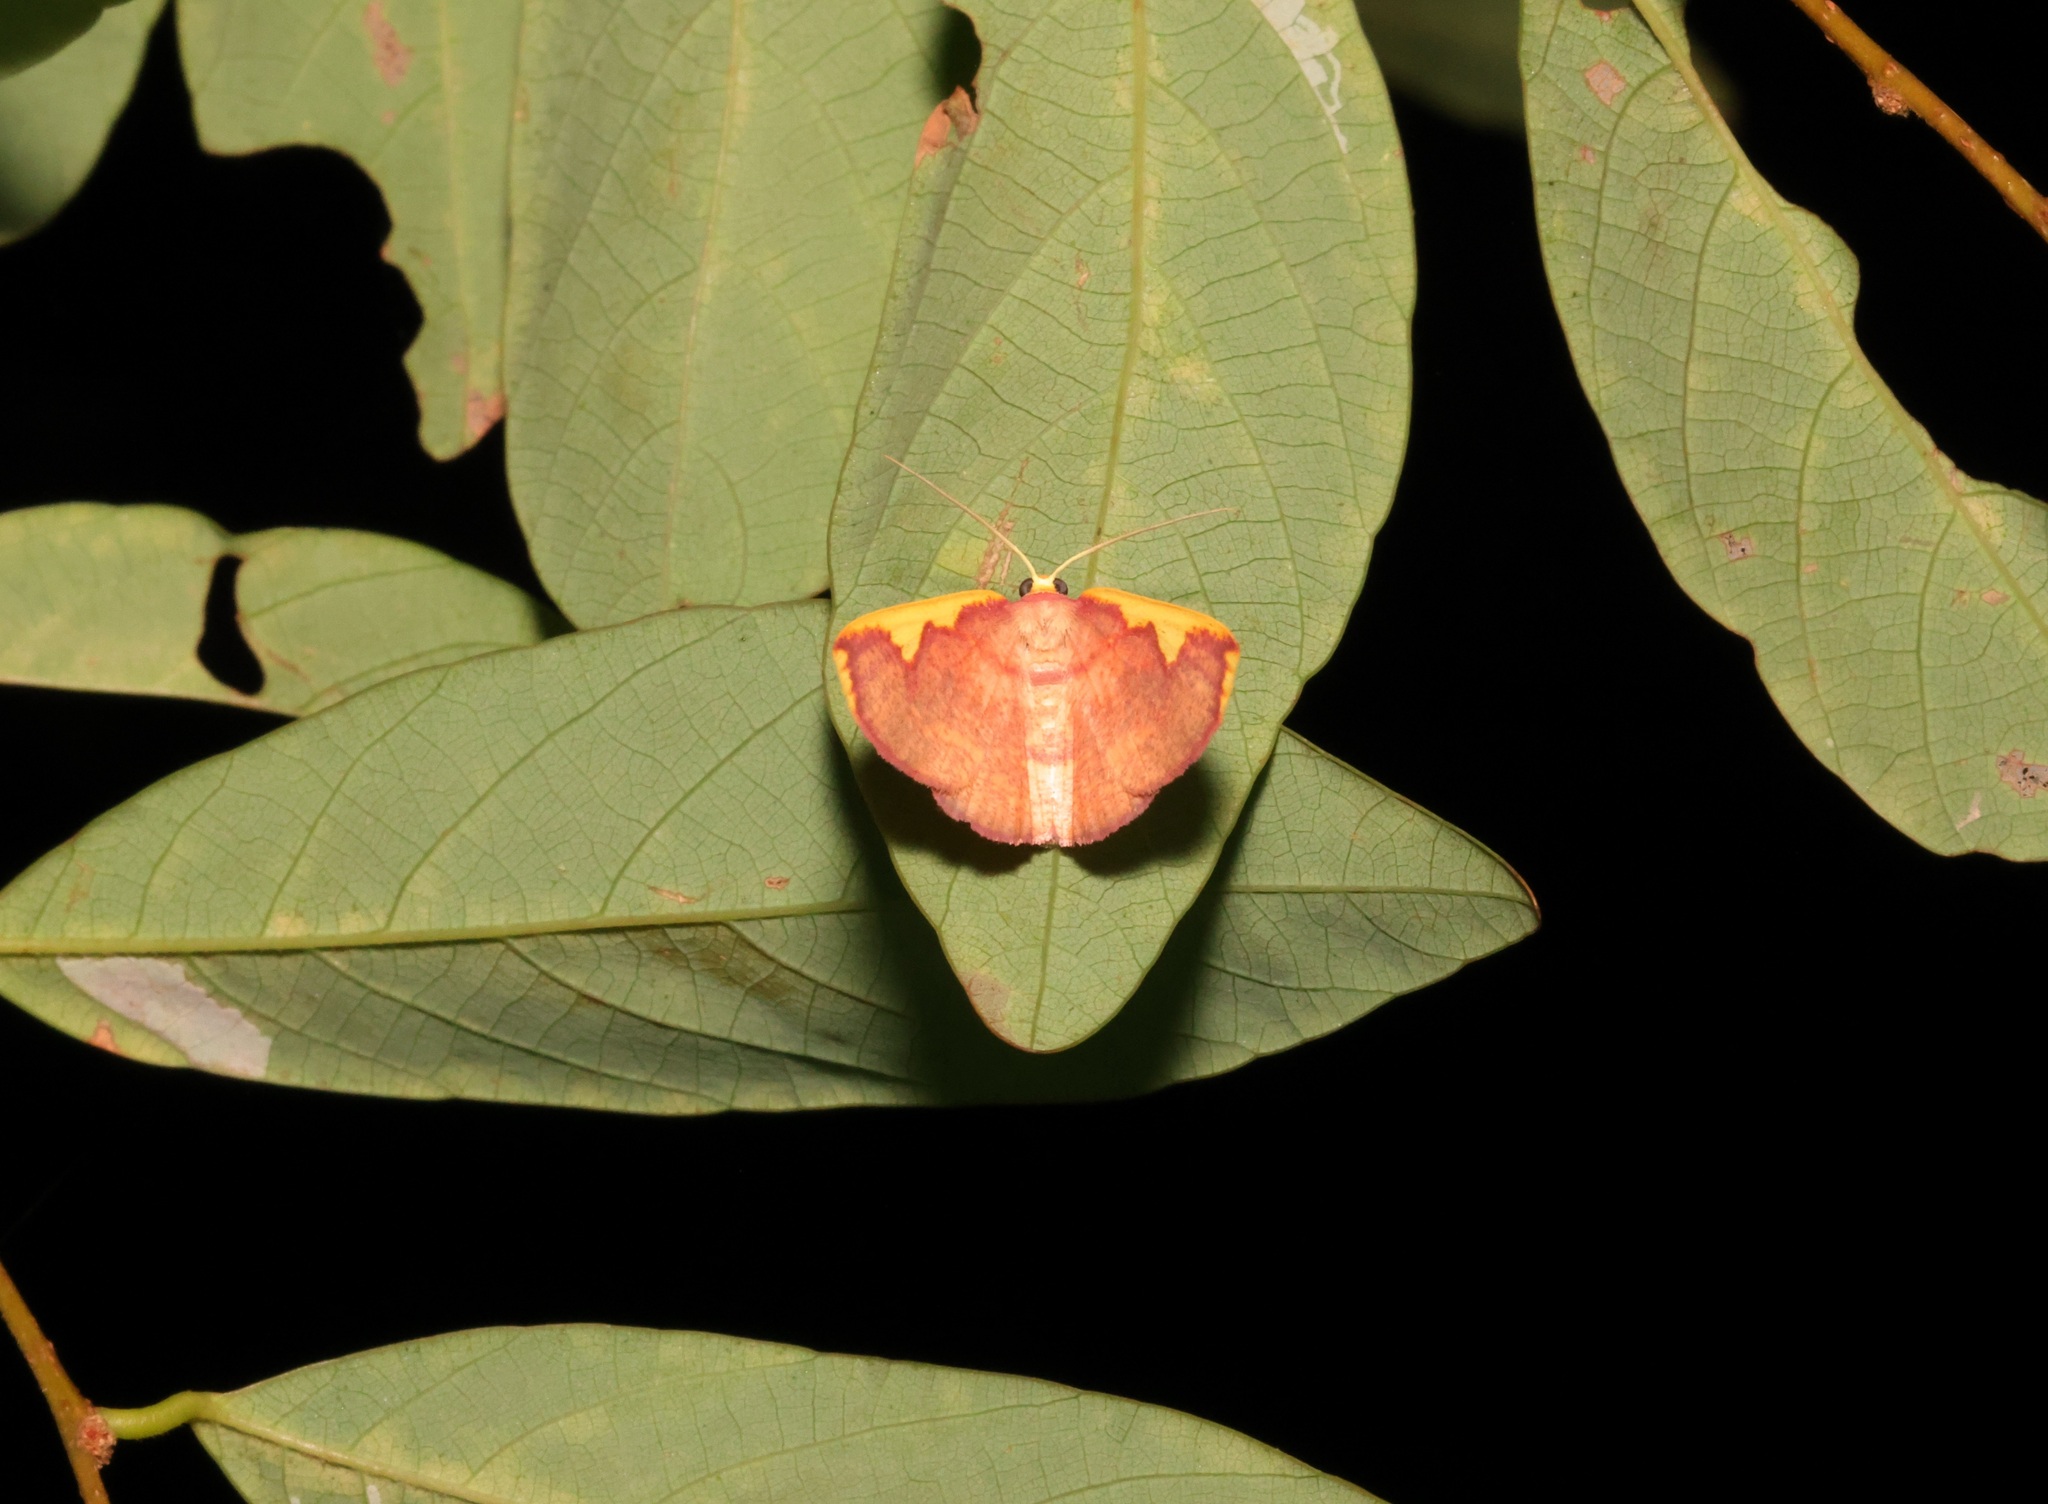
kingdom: Animalia
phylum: Arthropoda
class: Insecta
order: Lepidoptera
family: Geometridae
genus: Nothomiza
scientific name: Nothomiza flavicosta
